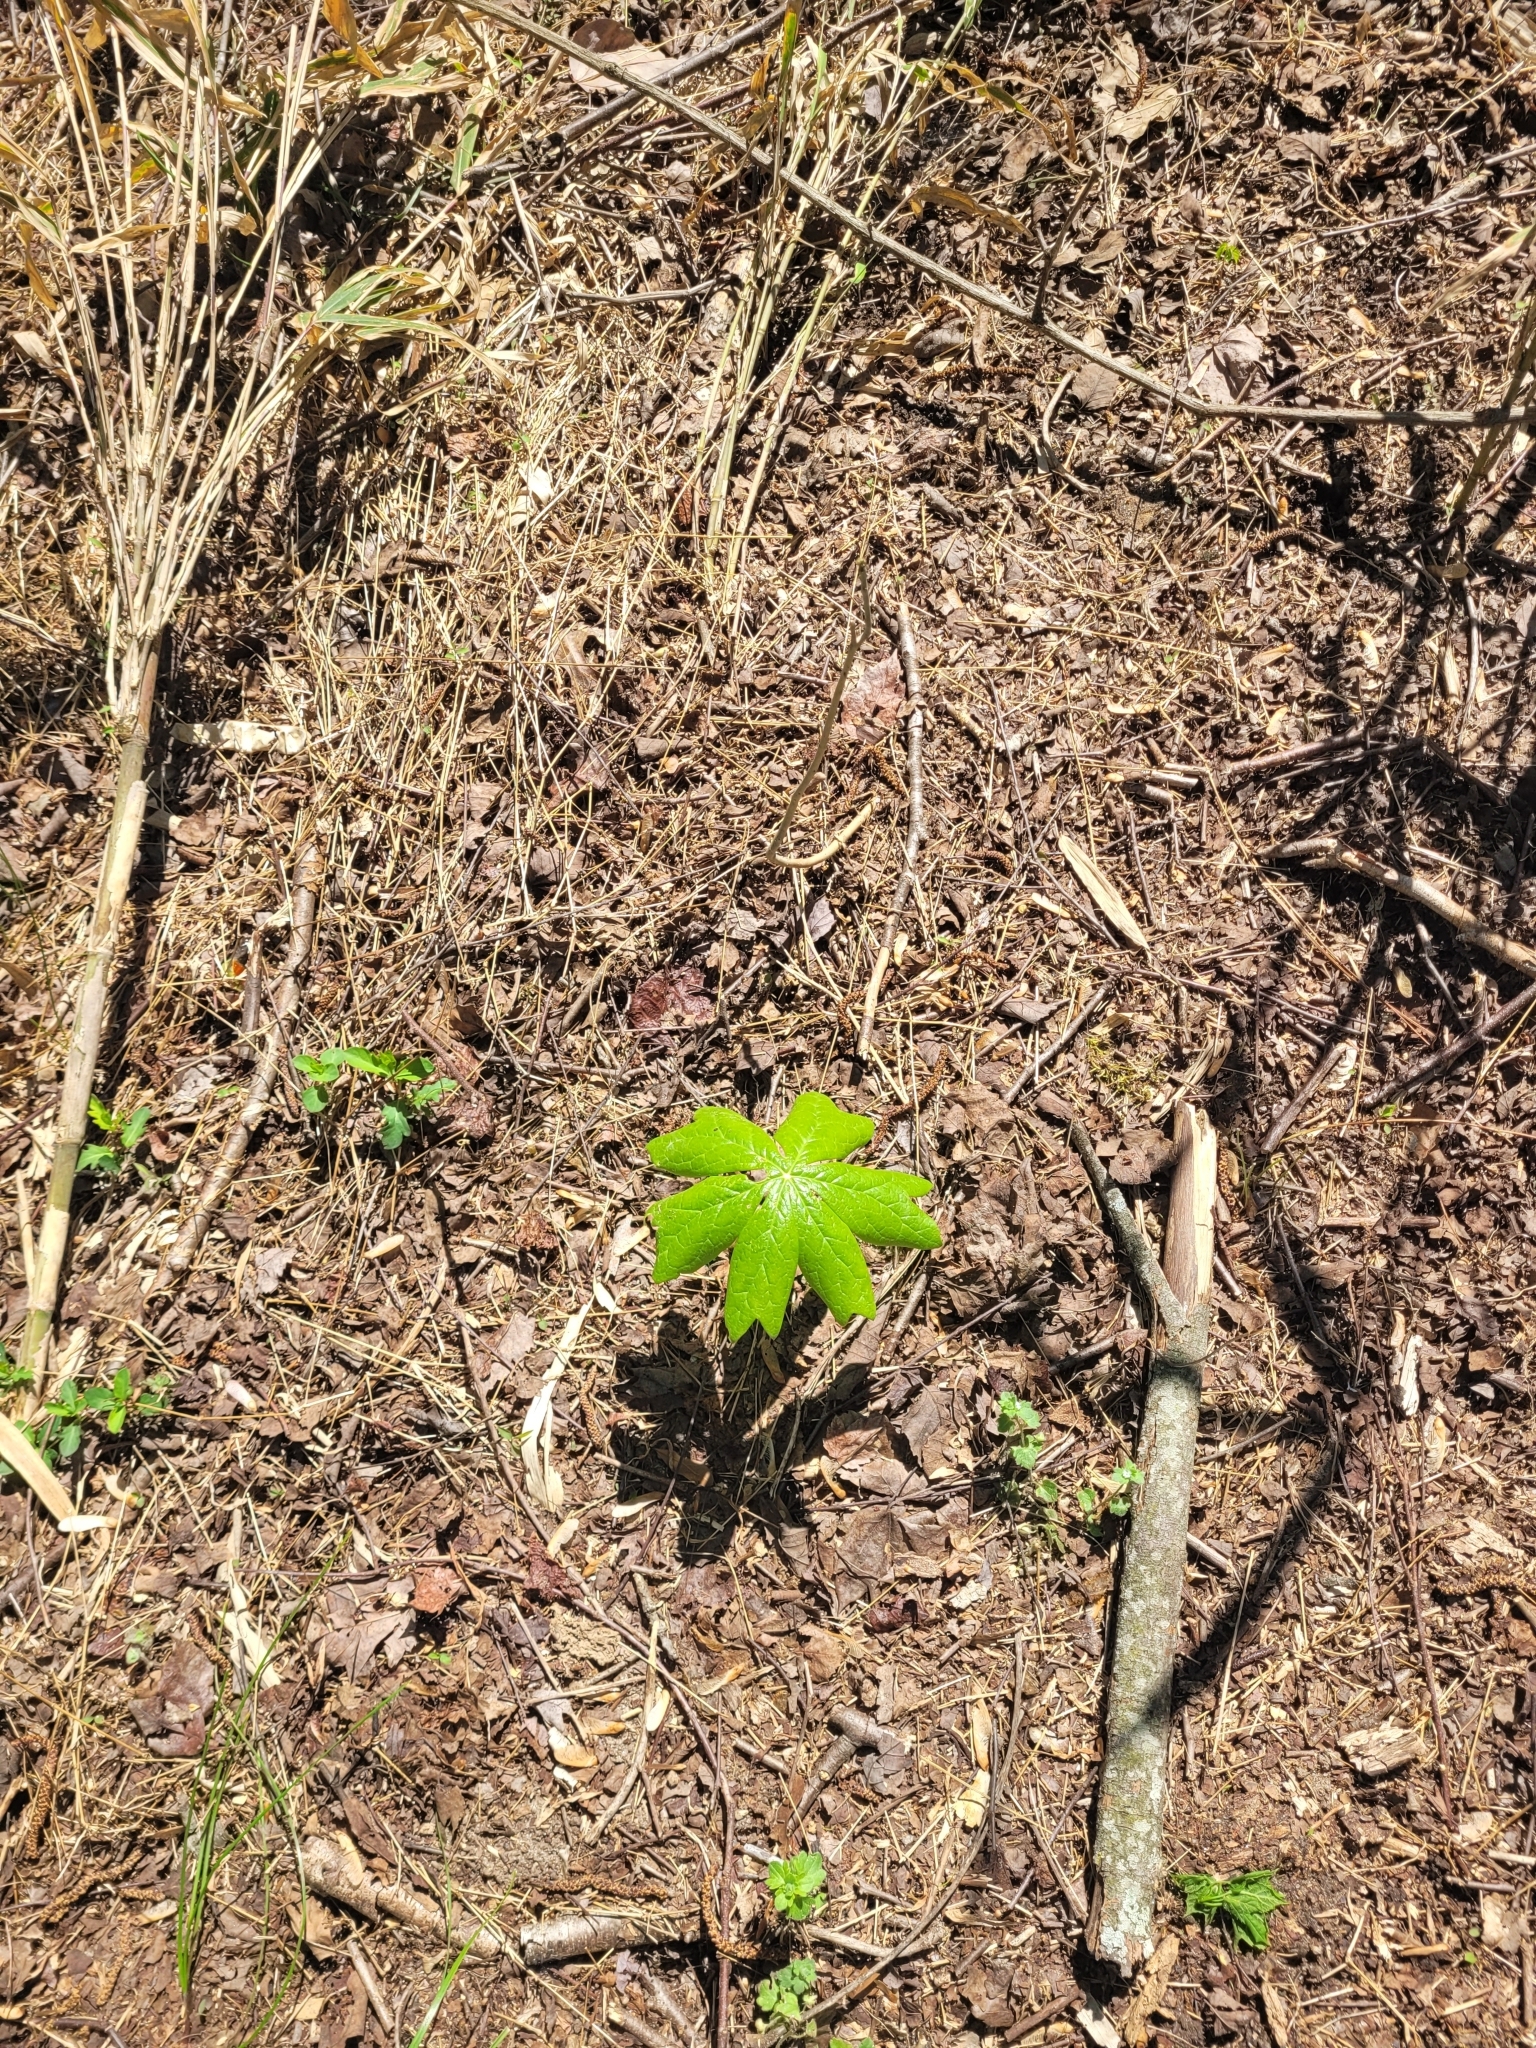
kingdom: Plantae
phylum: Tracheophyta
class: Magnoliopsida
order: Ranunculales
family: Berberidaceae
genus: Podophyllum
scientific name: Podophyllum peltatum
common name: Wild mandrake
